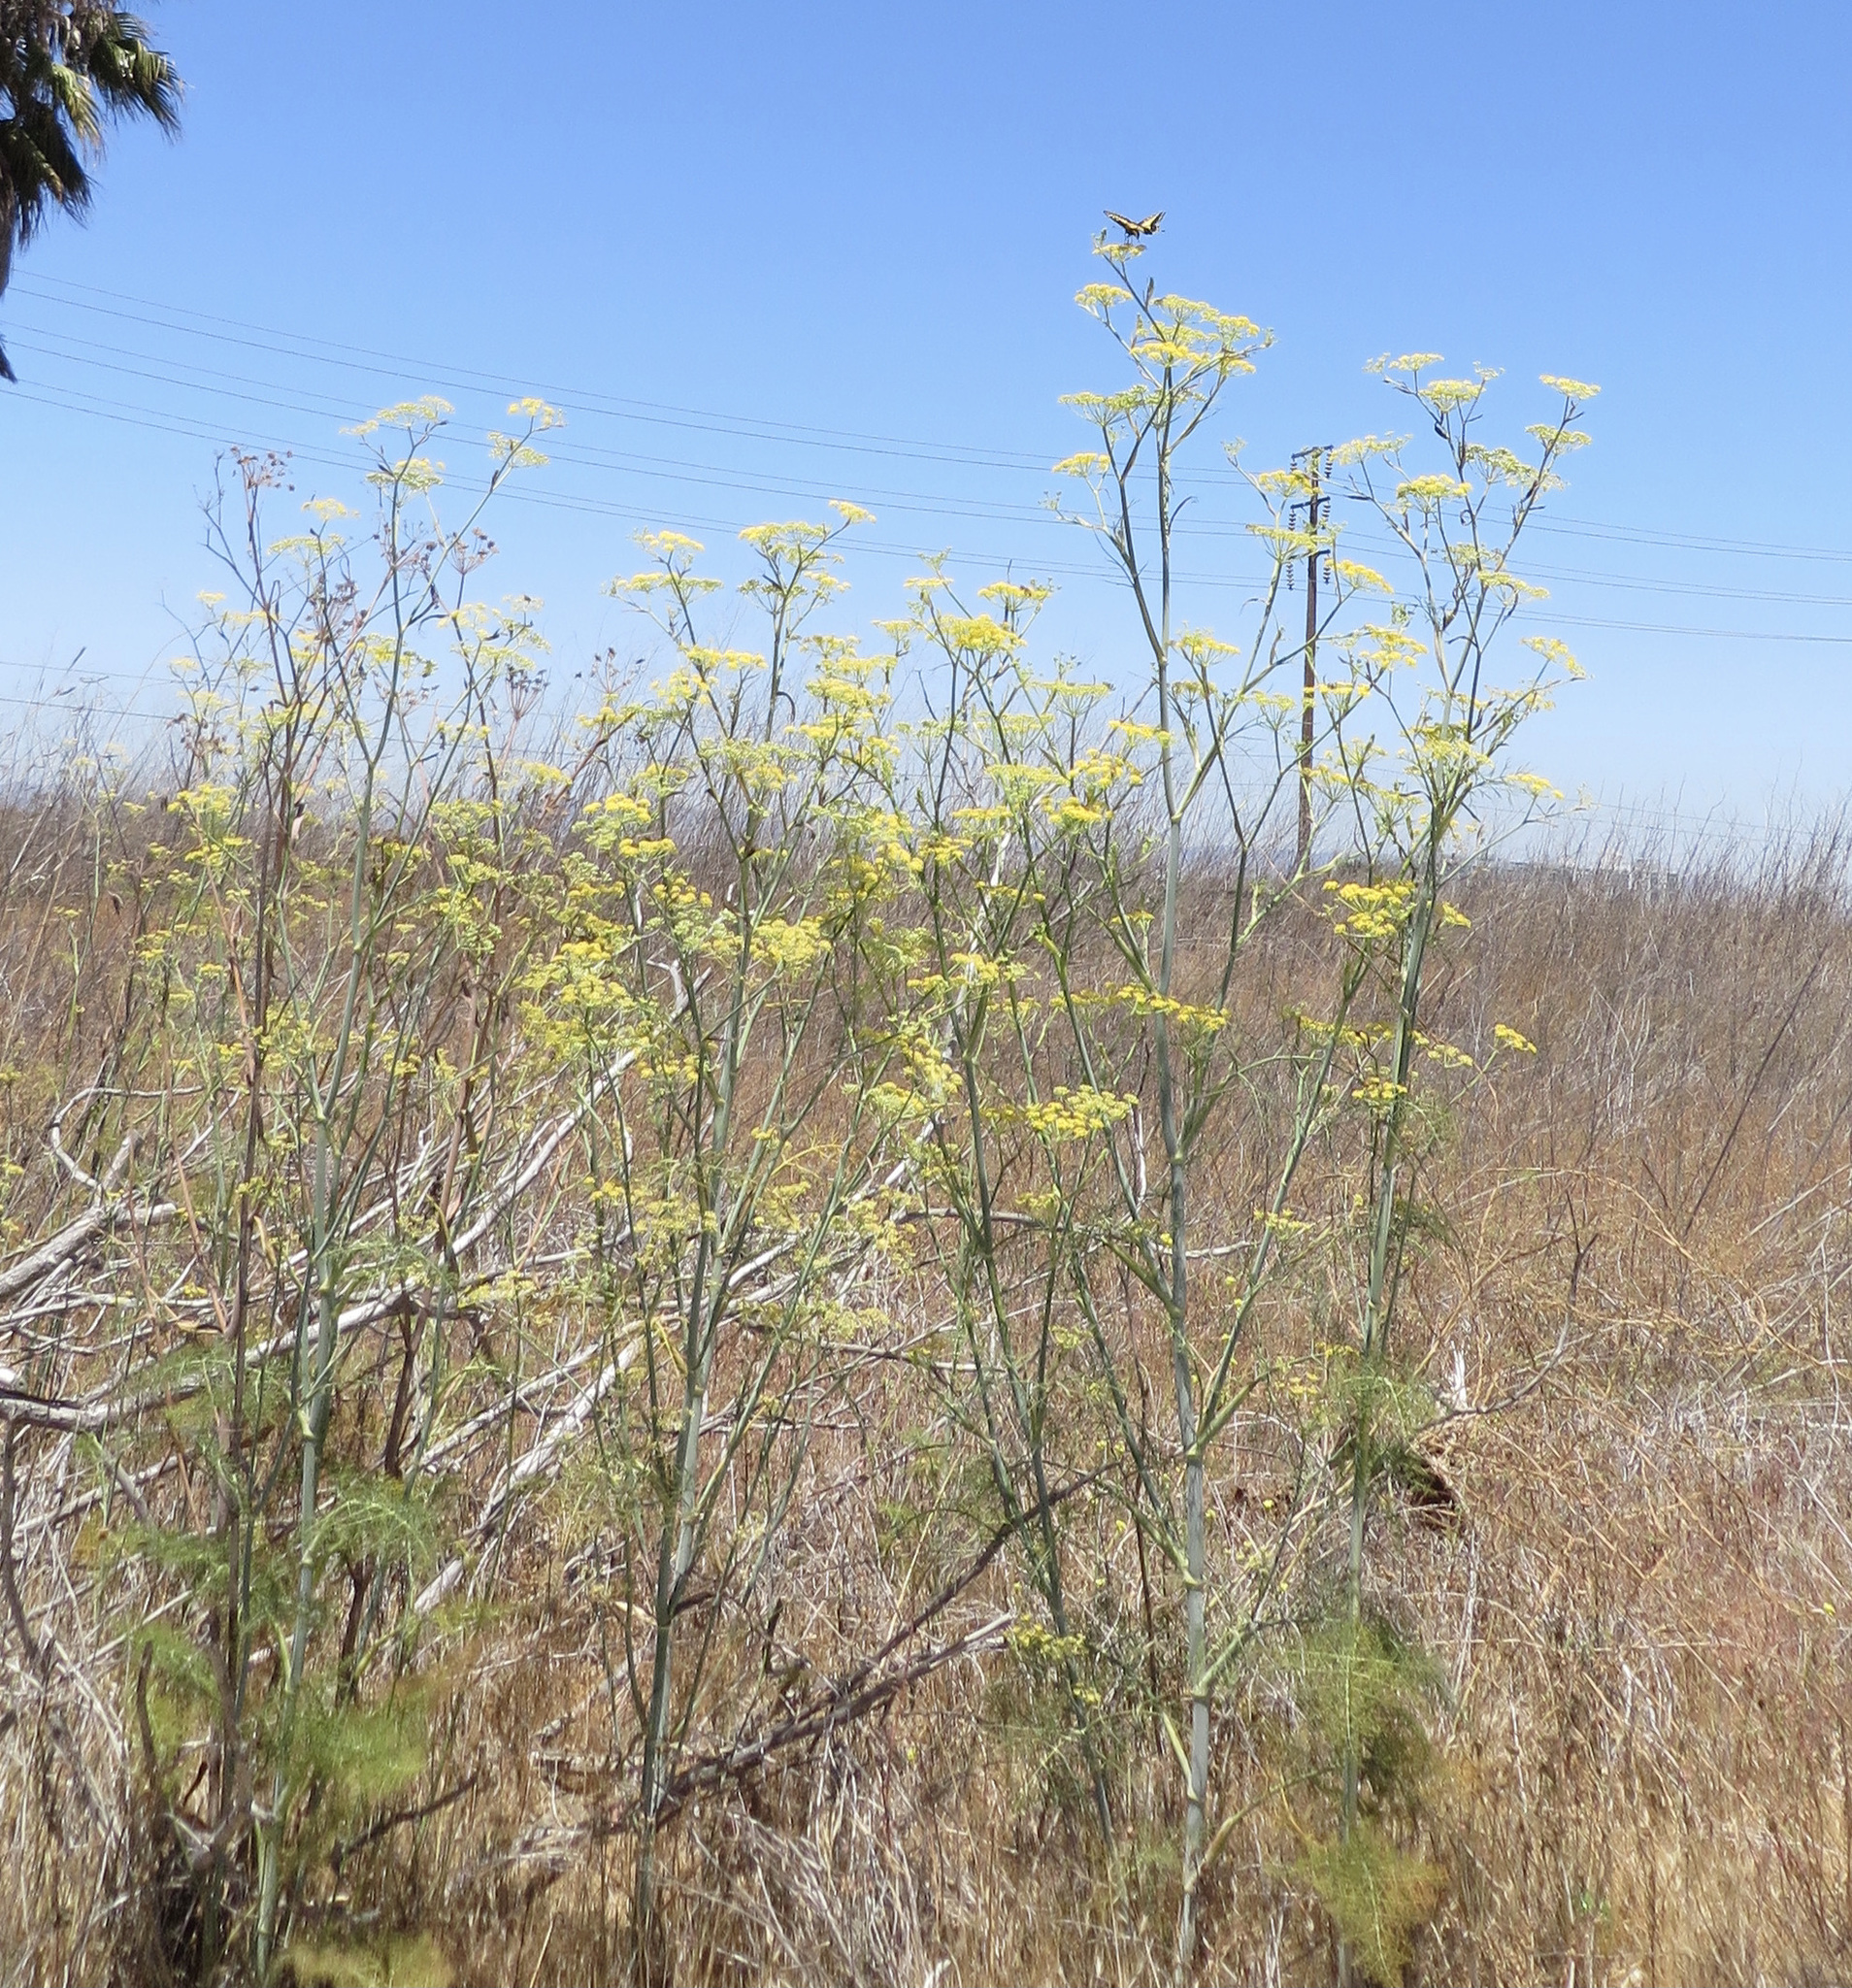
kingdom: Plantae
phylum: Tracheophyta
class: Magnoliopsida
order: Apiales
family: Apiaceae
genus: Foeniculum
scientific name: Foeniculum vulgare
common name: Fennel
